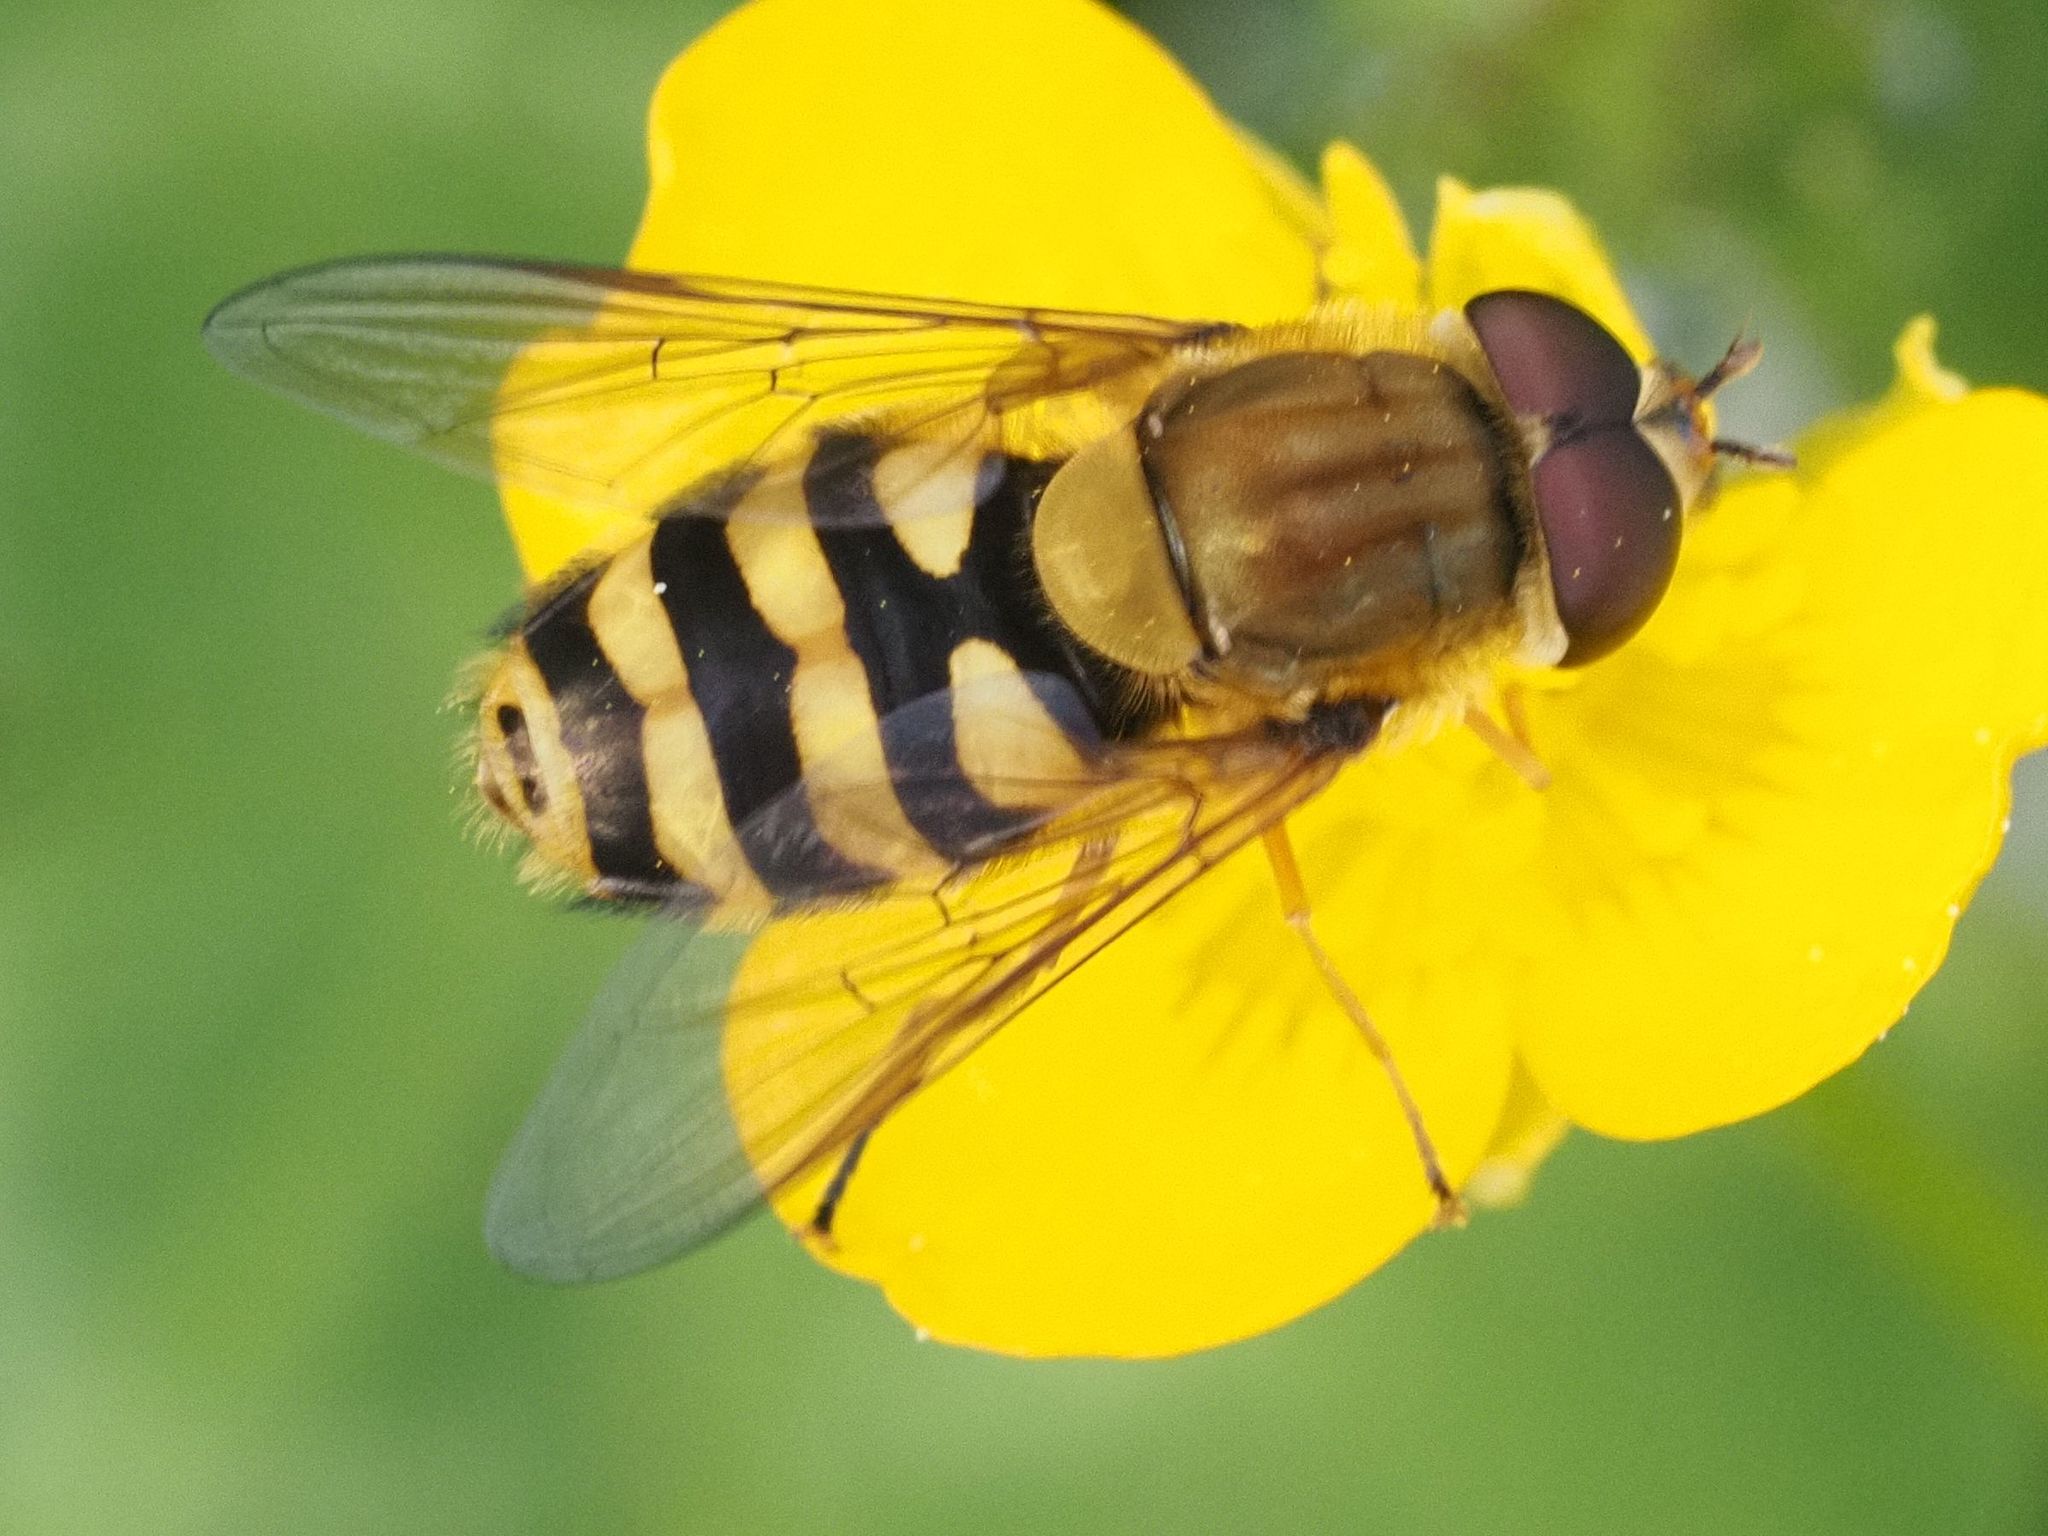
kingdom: Animalia
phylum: Arthropoda
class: Insecta
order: Diptera
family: Syrphidae
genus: Syrphus
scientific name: Syrphus
